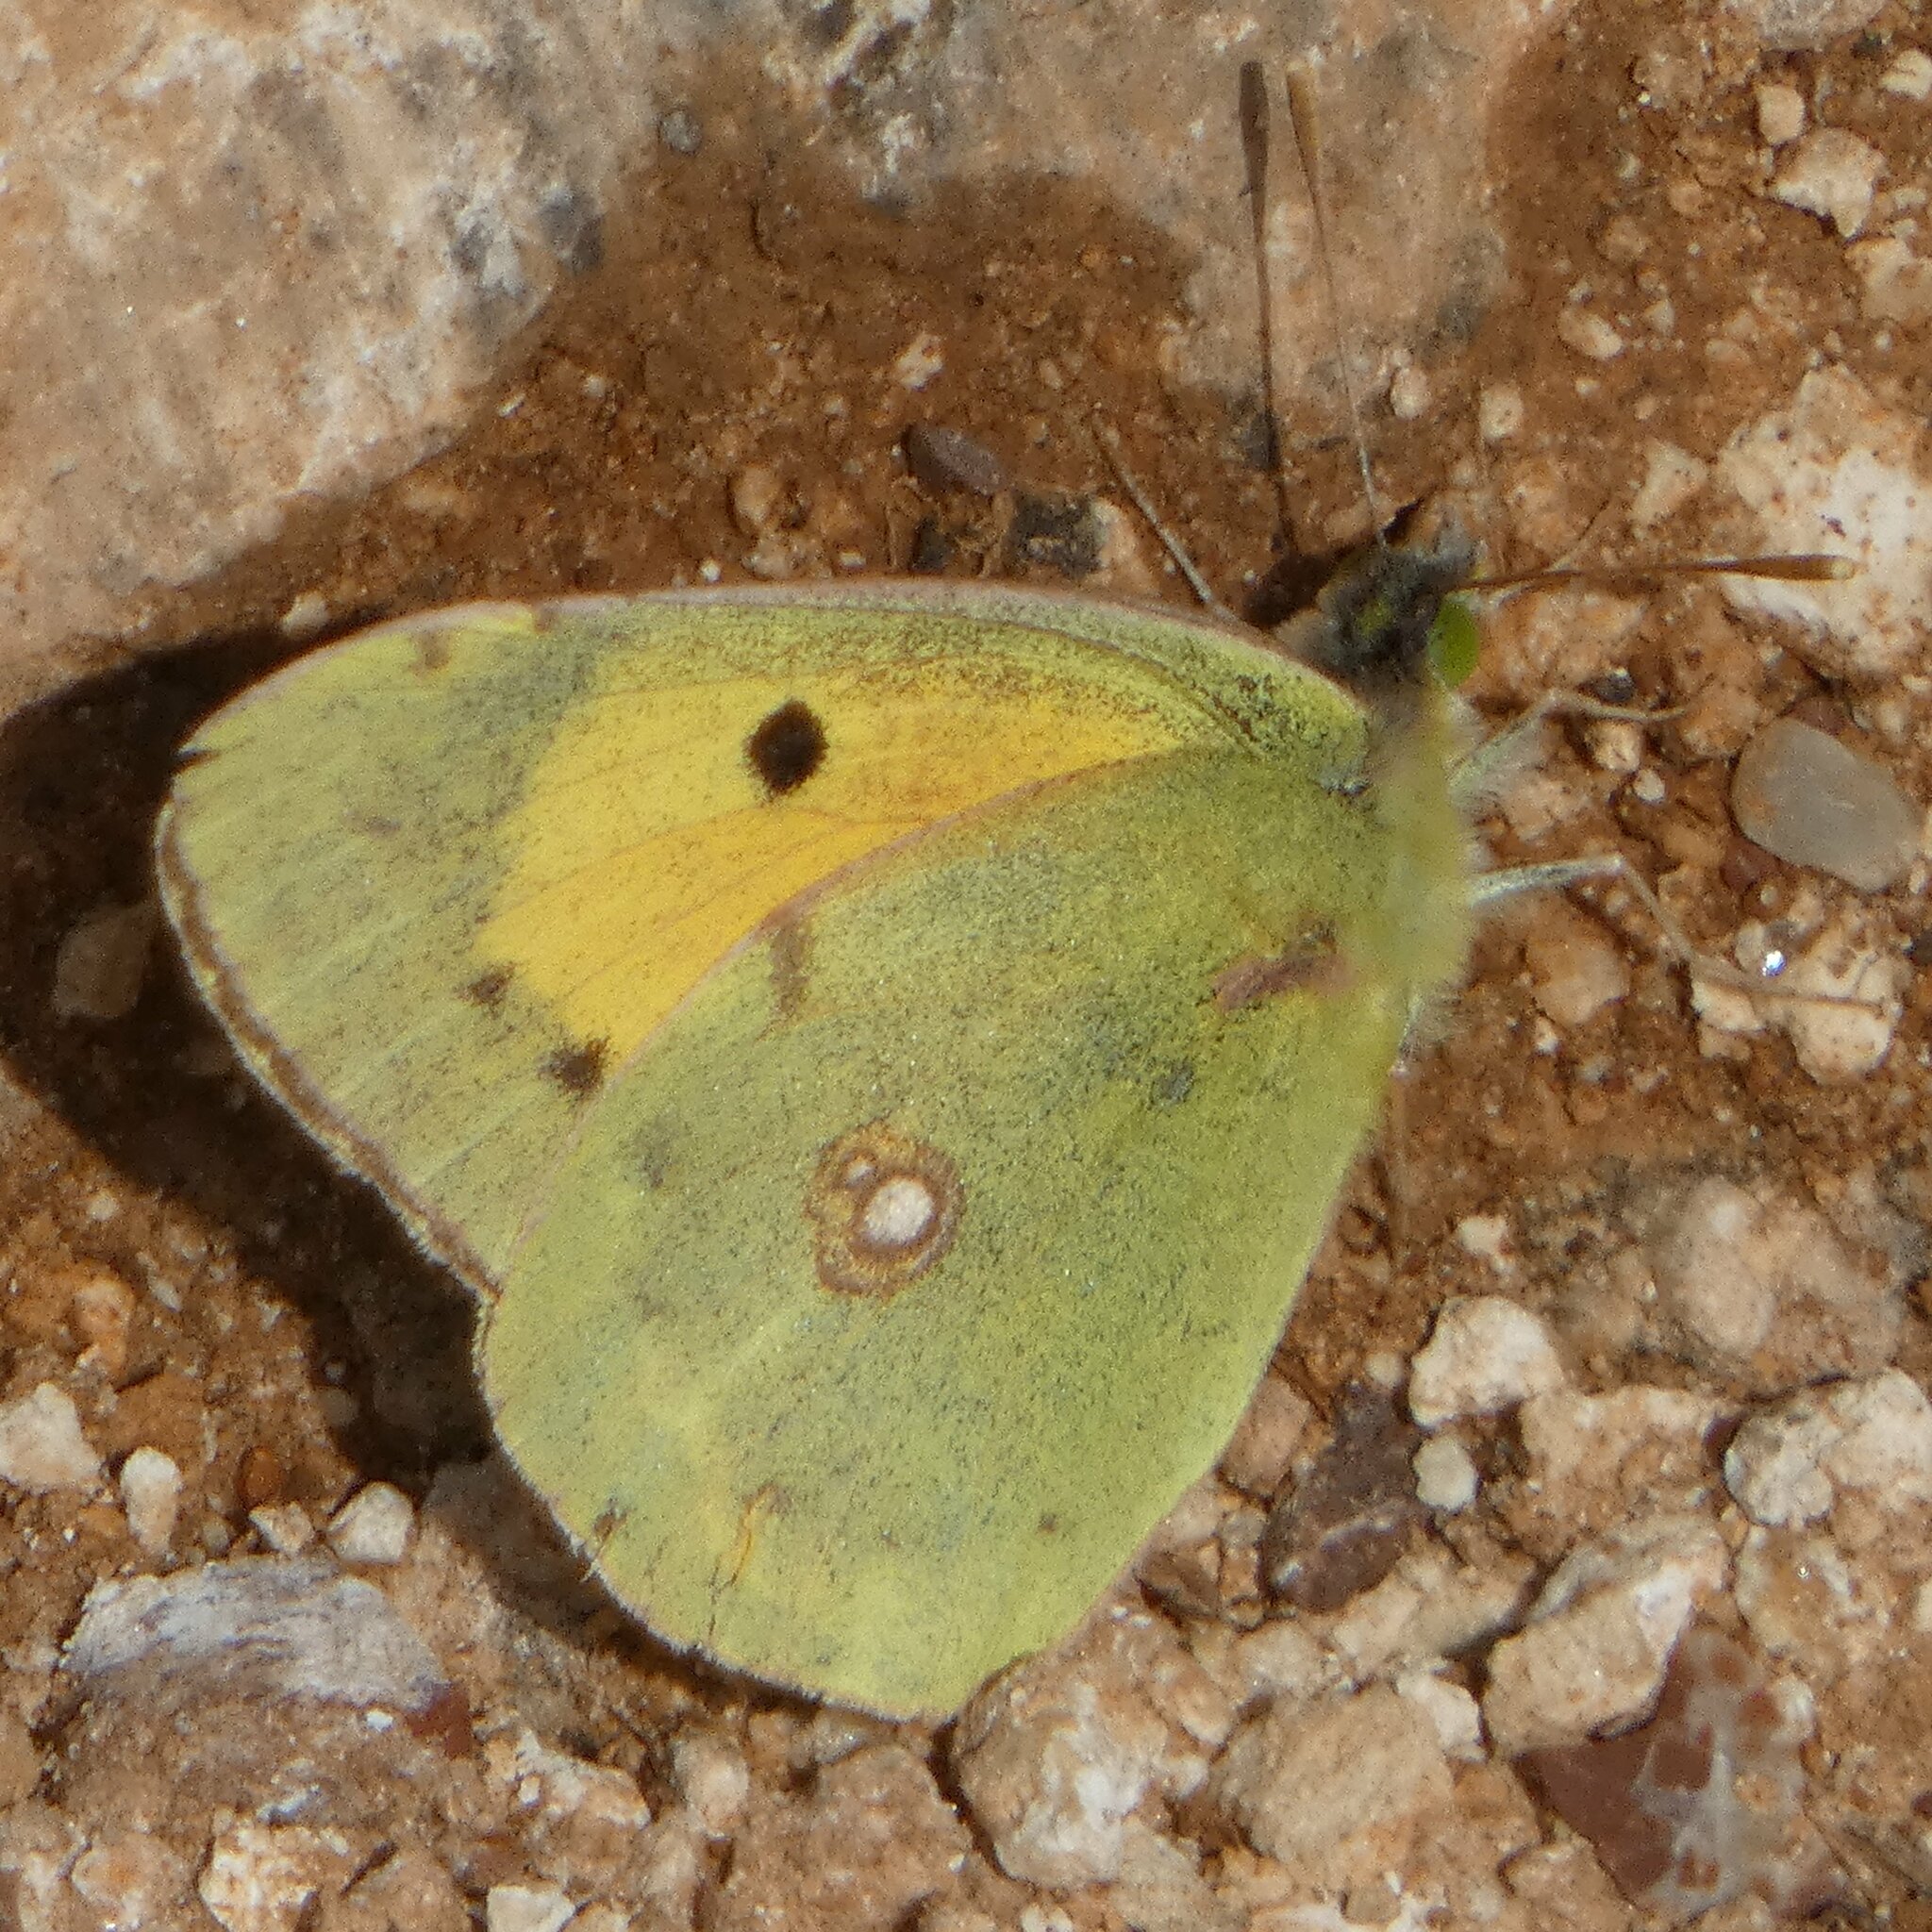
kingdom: Animalia
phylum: Arthropoda
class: Insecta
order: Lepidoptera
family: Pieridae
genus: Colias
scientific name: Colias croceus
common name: Clouded yellow
